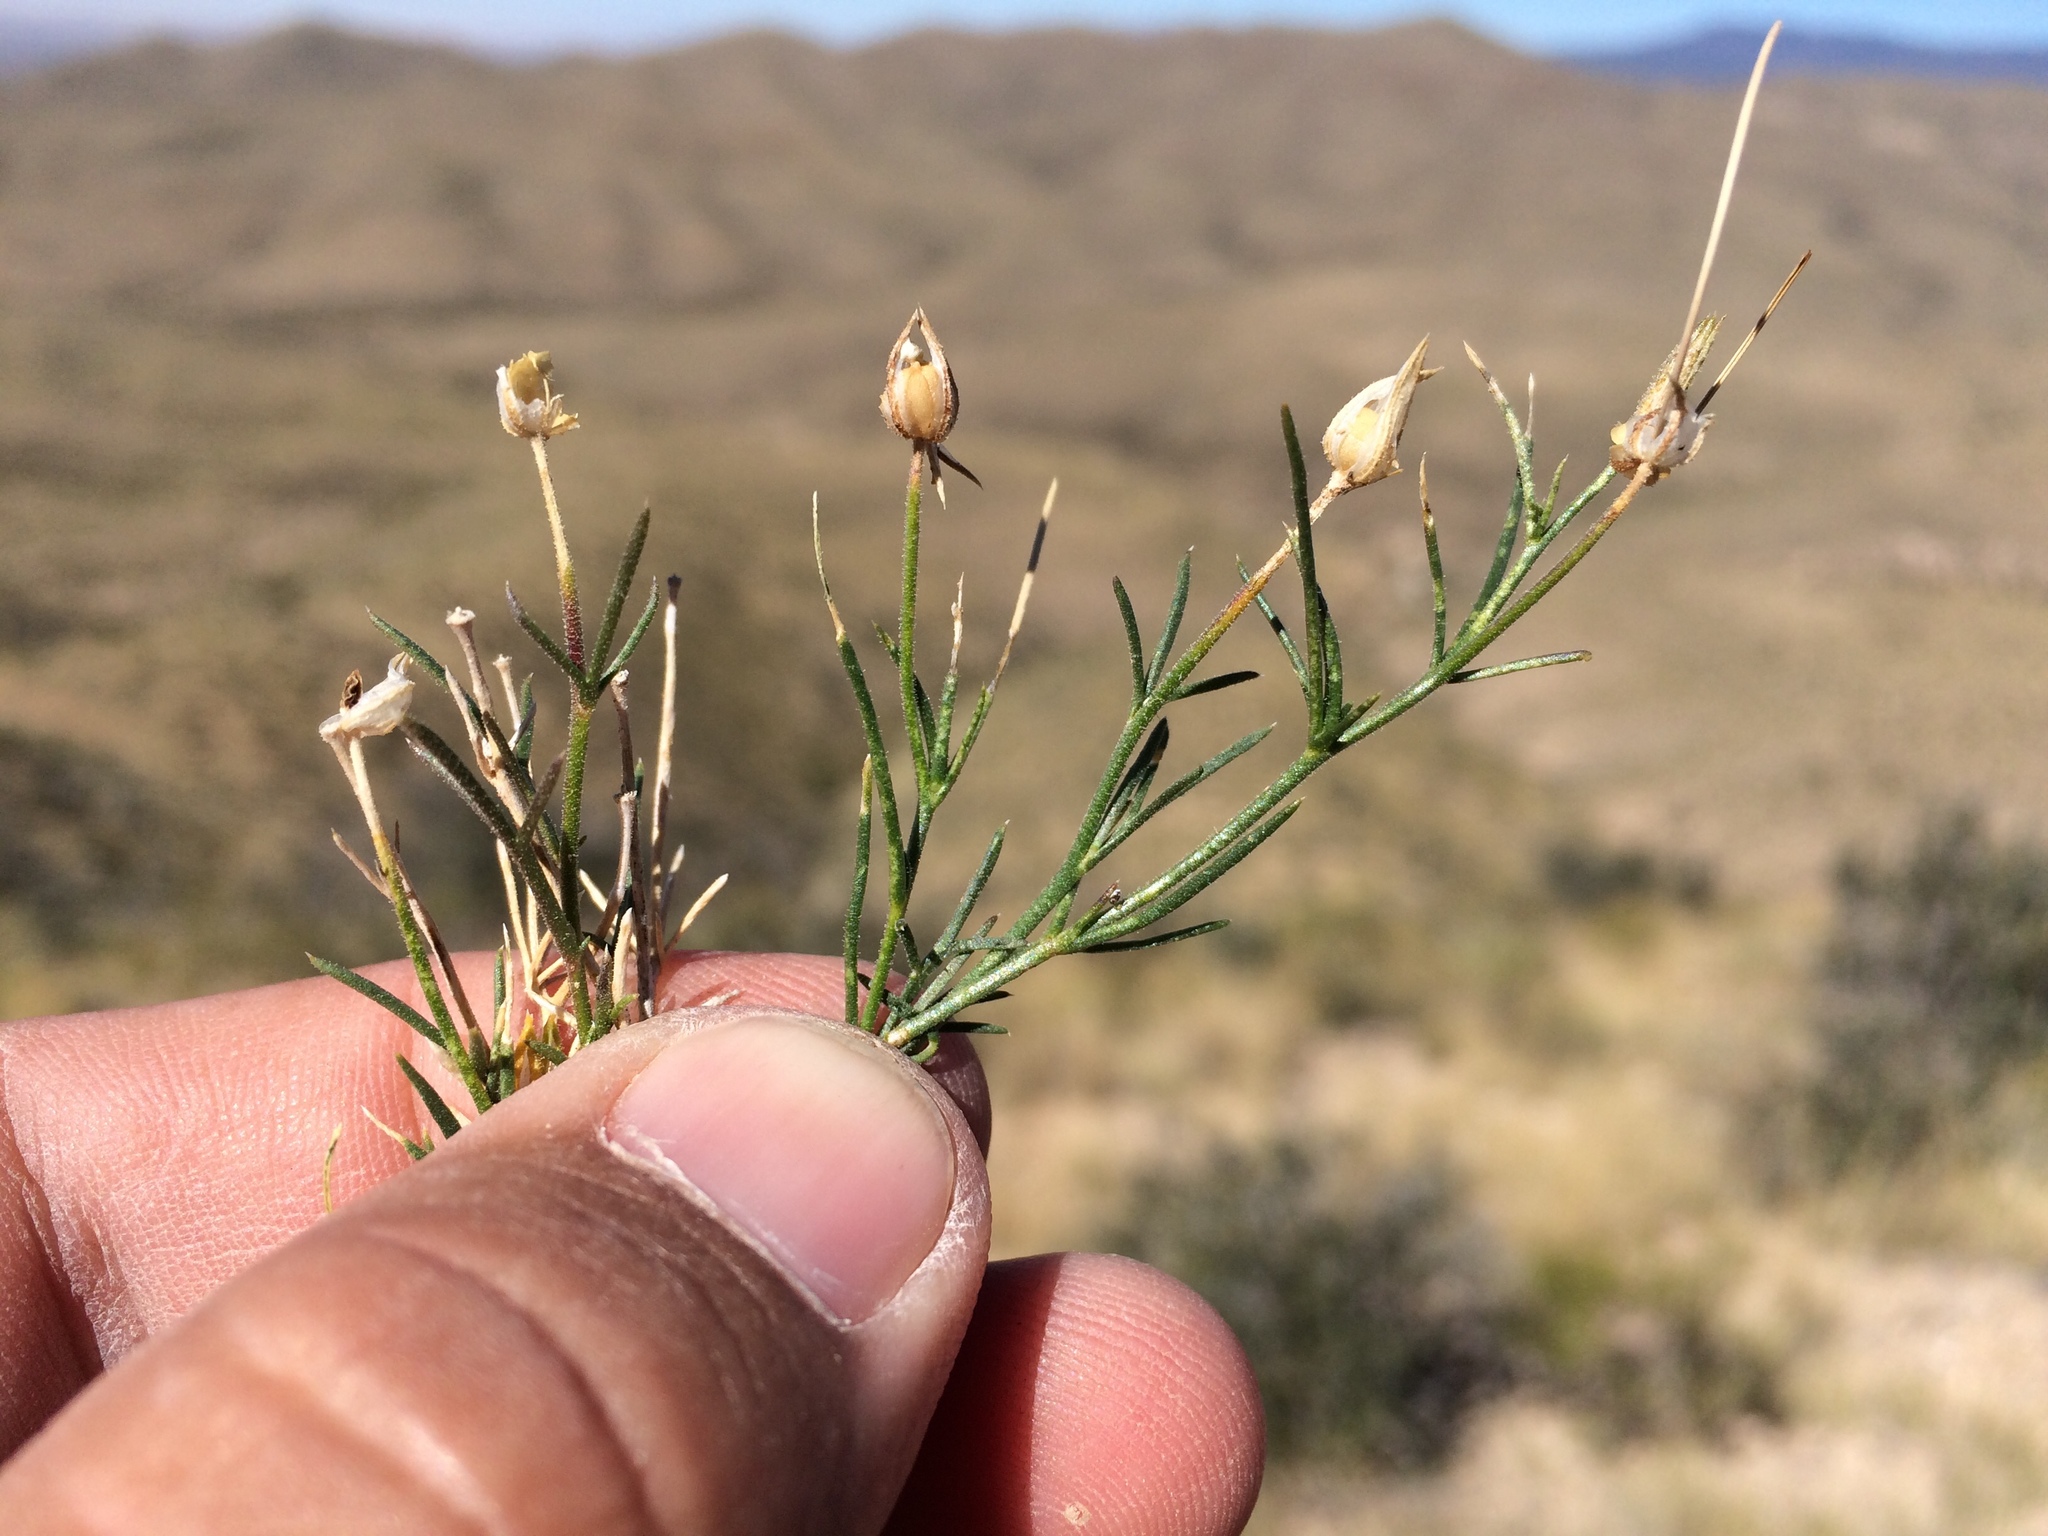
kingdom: Plantae
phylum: Tracheophyta
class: Magnoliopsida
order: Ericales
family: Polemoniaceae
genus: Giliastrum
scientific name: Giliastrum acerosum
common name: Bluebowls
